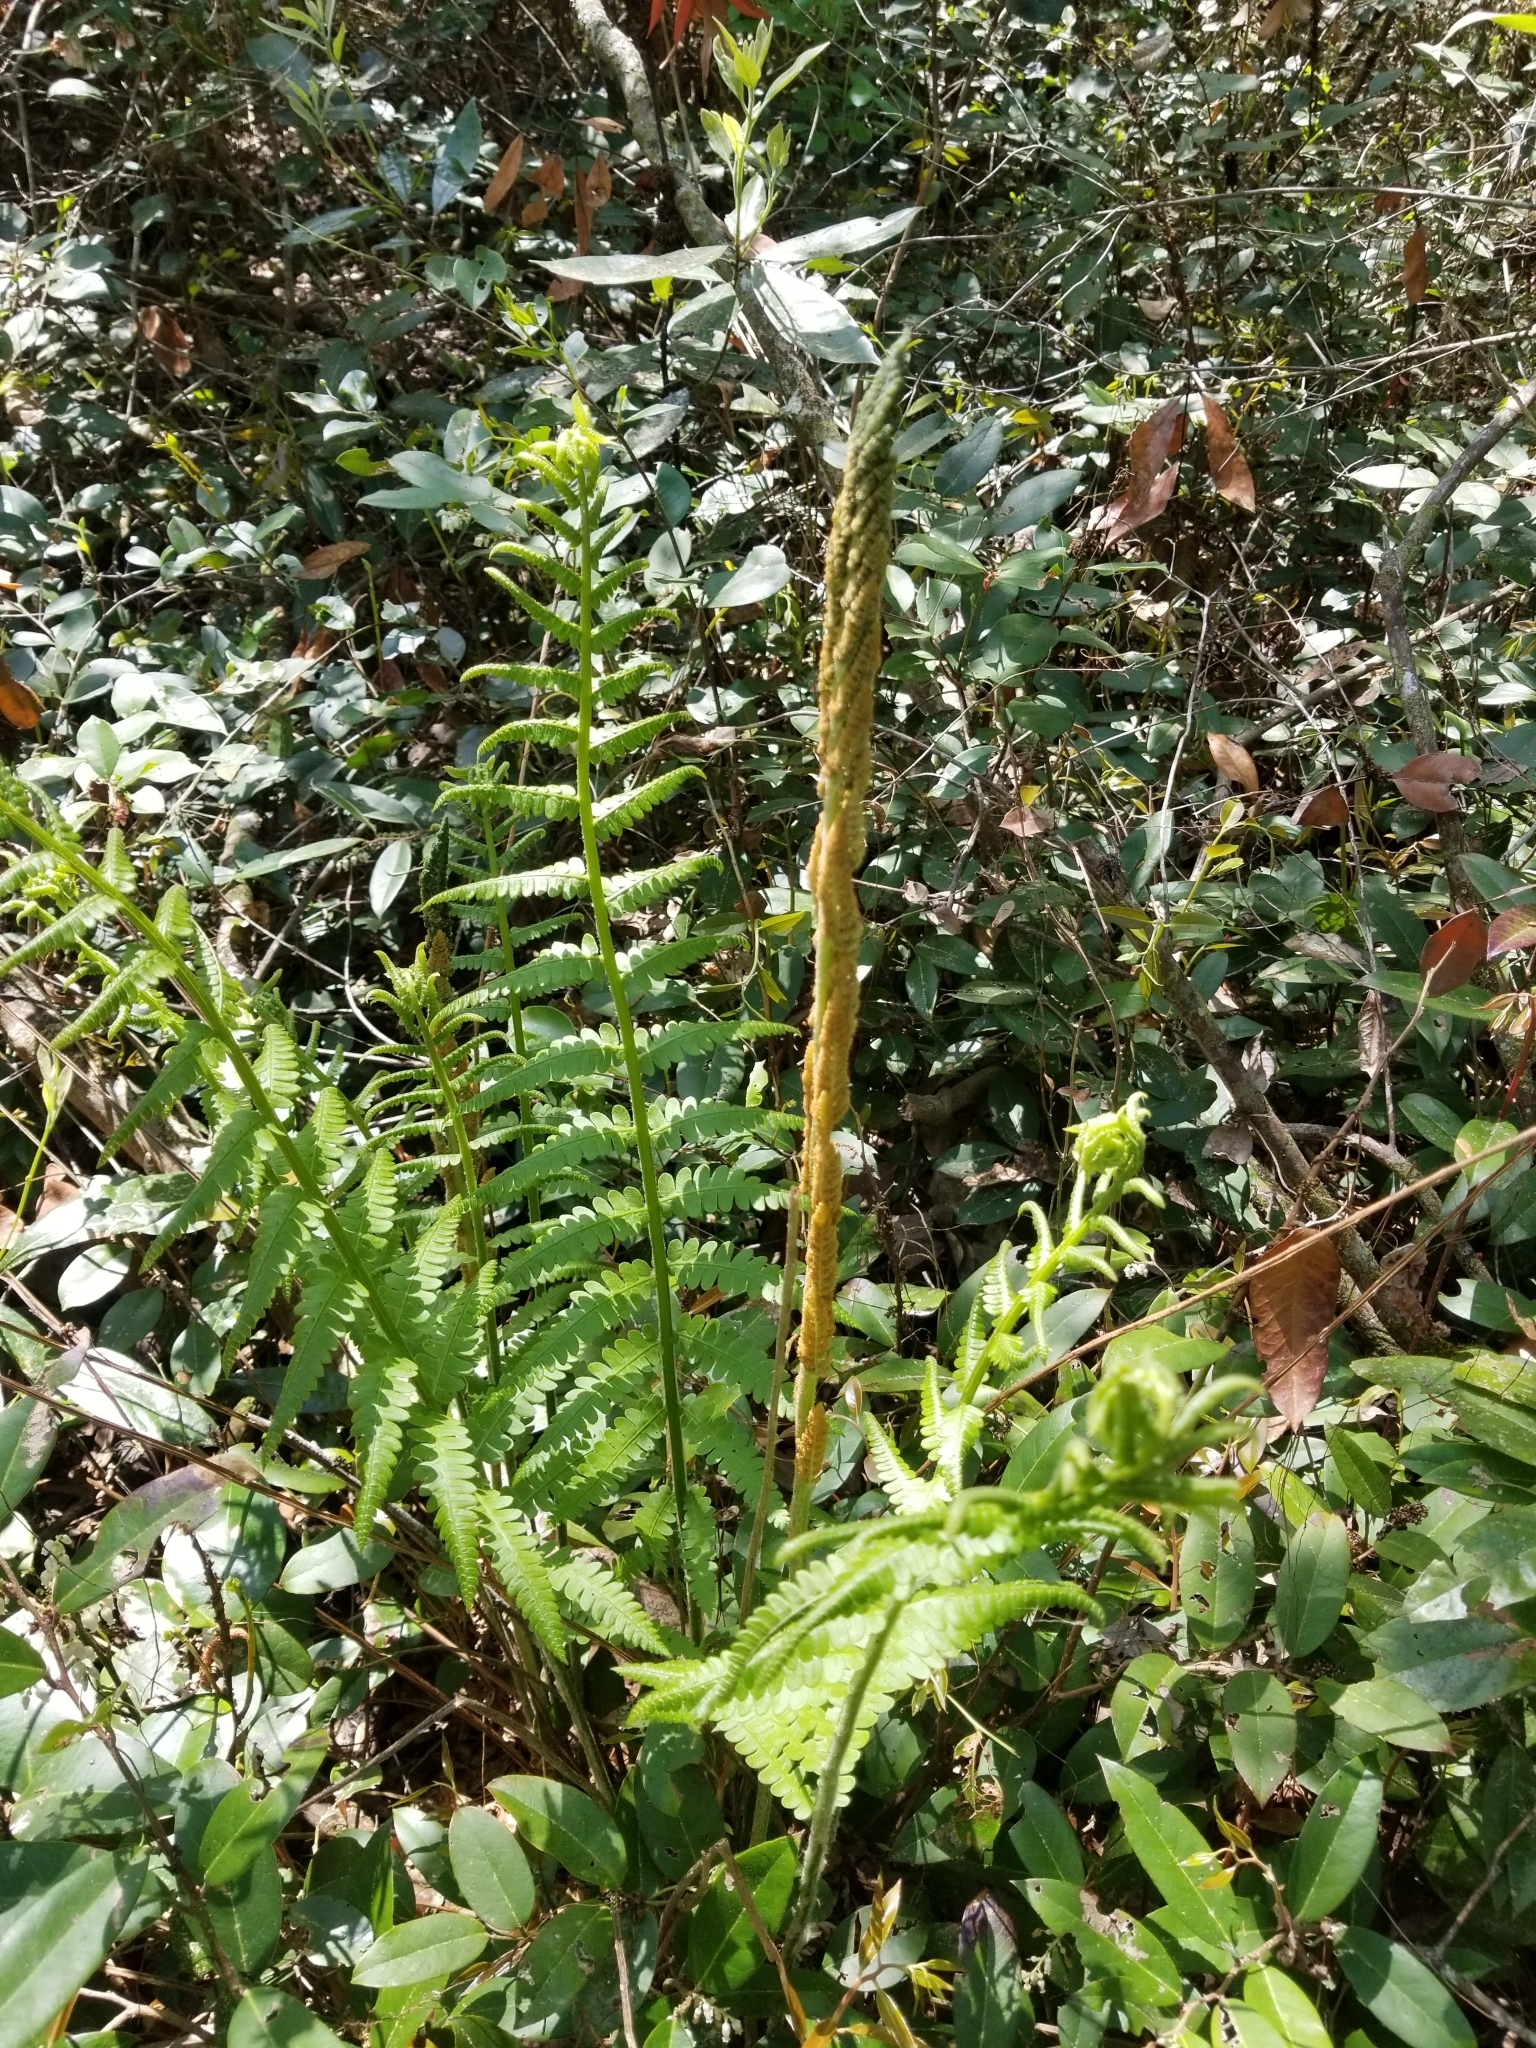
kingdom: Plantae
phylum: Tracheophyta
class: Polypodiopsida
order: Osmundales
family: Osmundaceae
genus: Osmundastrum
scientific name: Osmundastrum cinnamomeum
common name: Cinnamon fern
